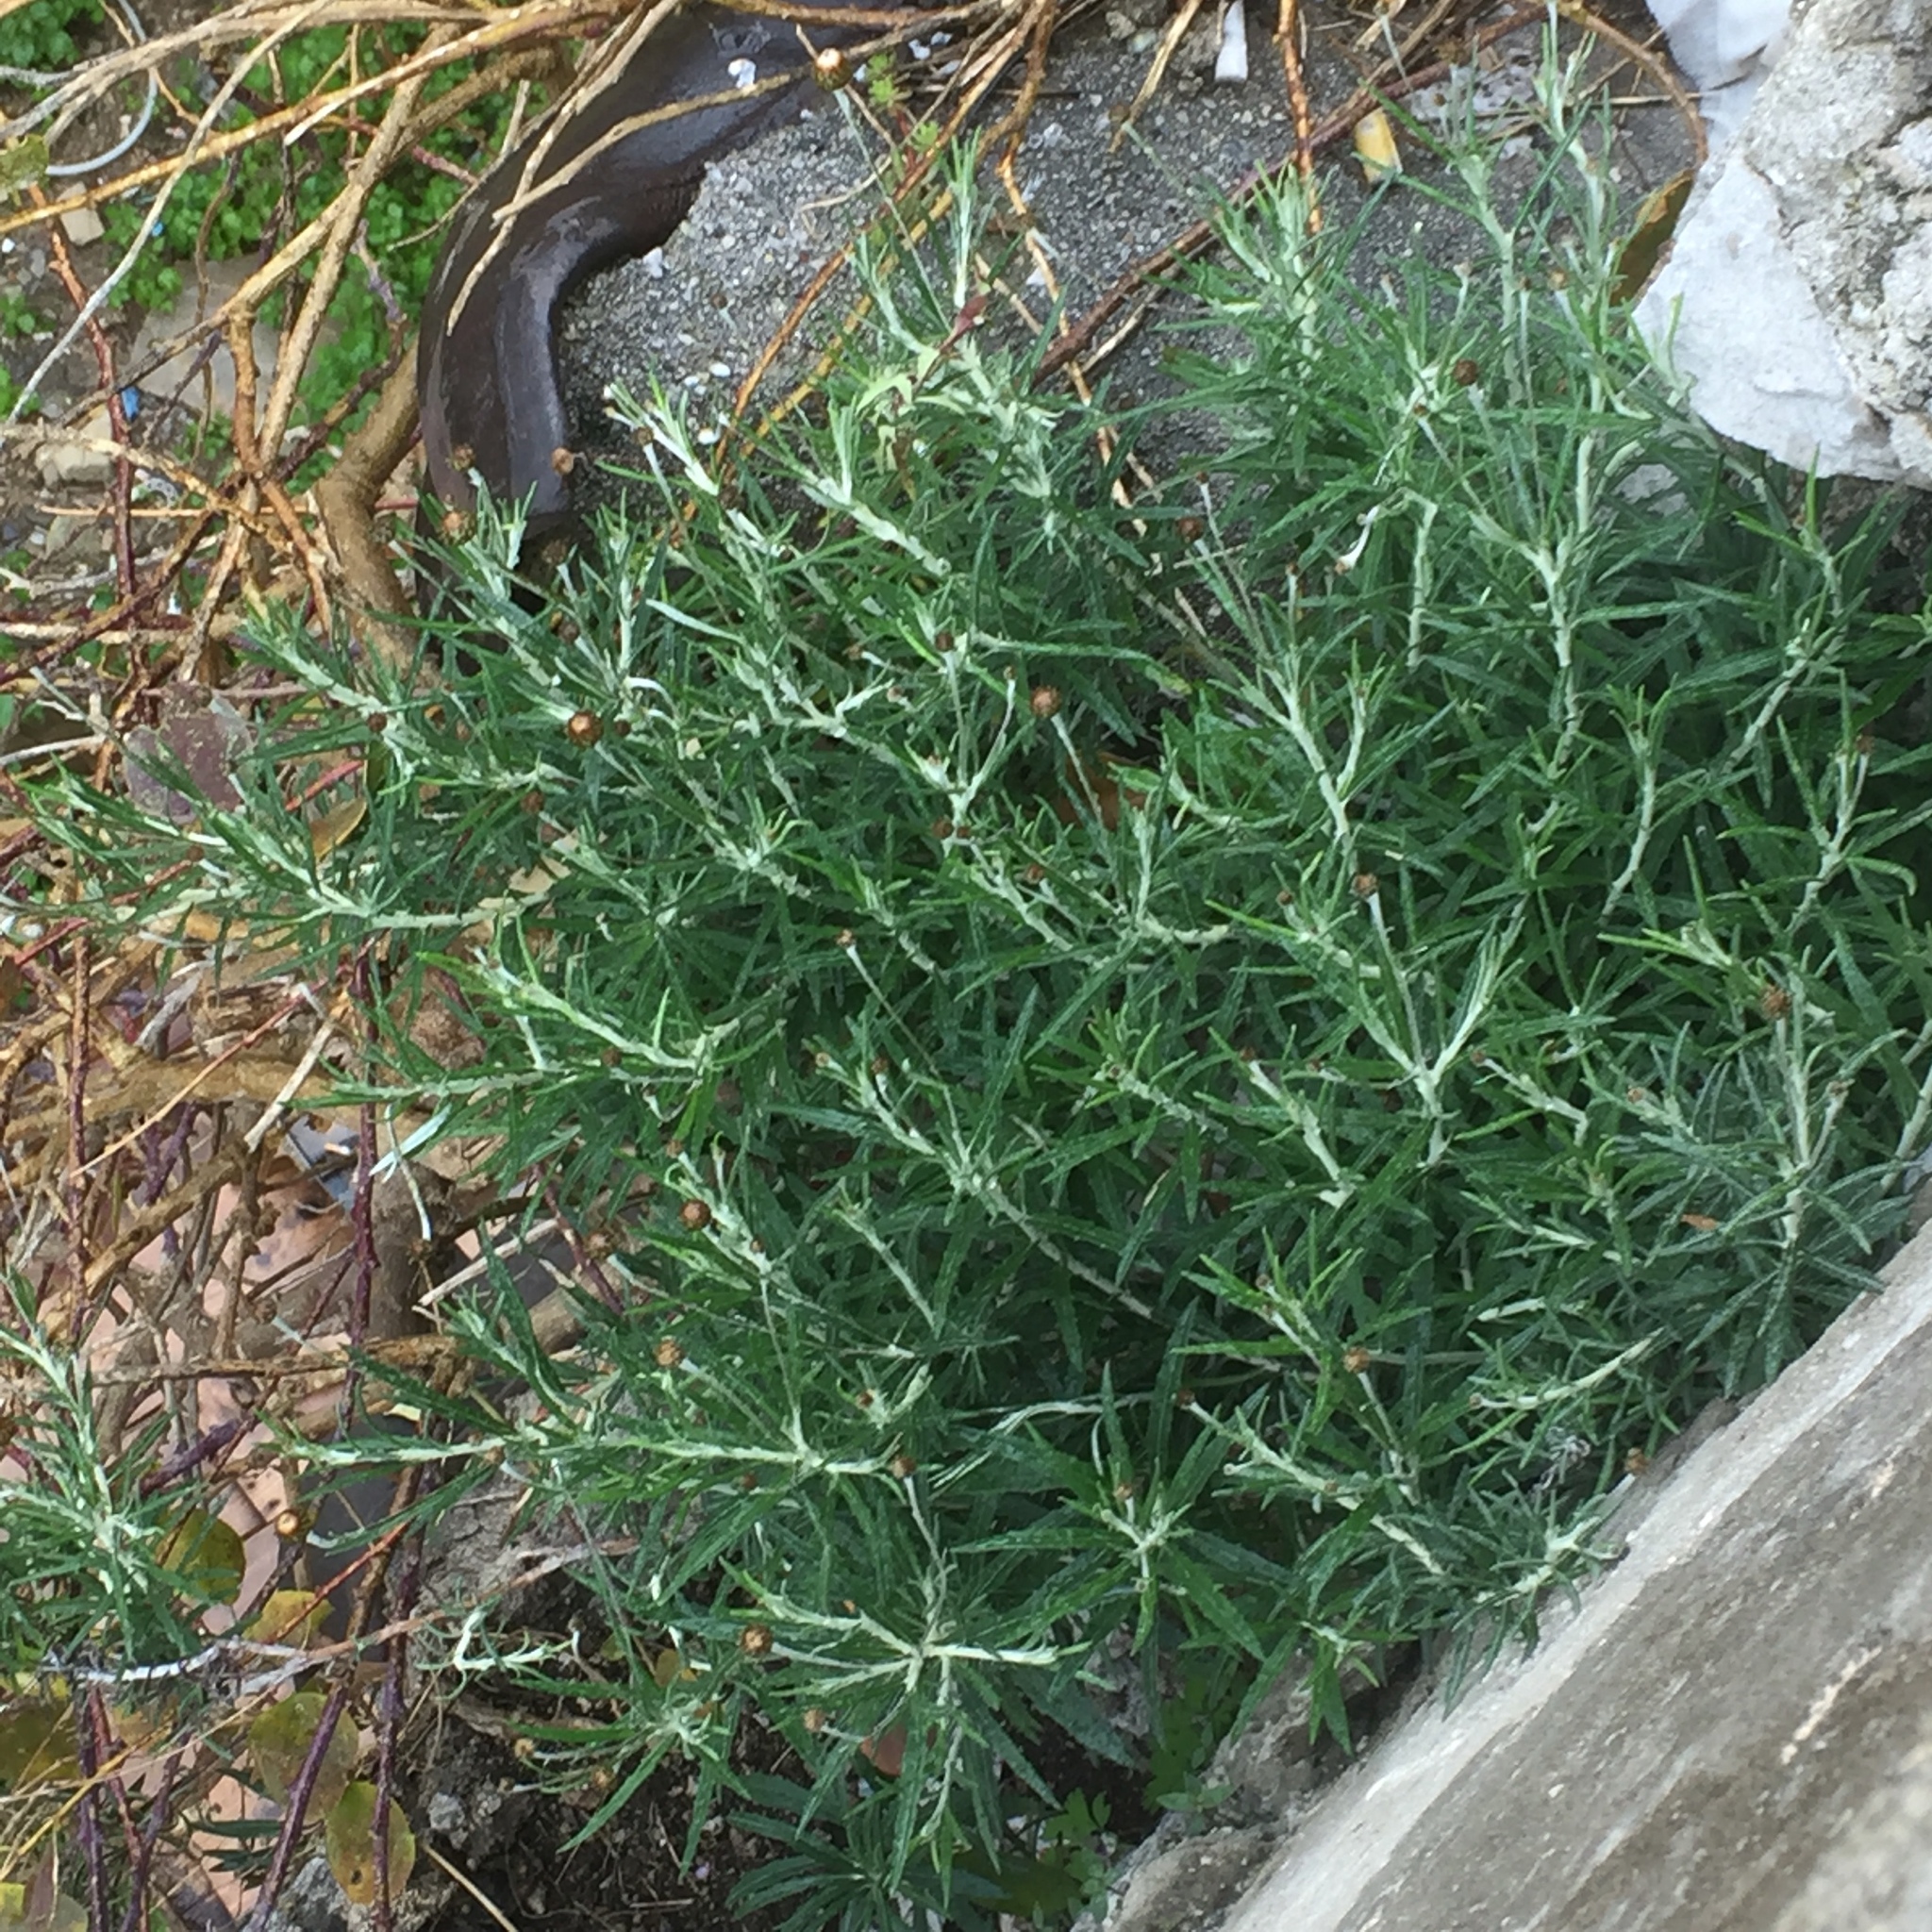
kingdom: Plantae
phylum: Tracheophyta
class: Magnoliopsida
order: Asterales
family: Asteraceae
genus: Phagnalon
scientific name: Phagnalon saxatile
